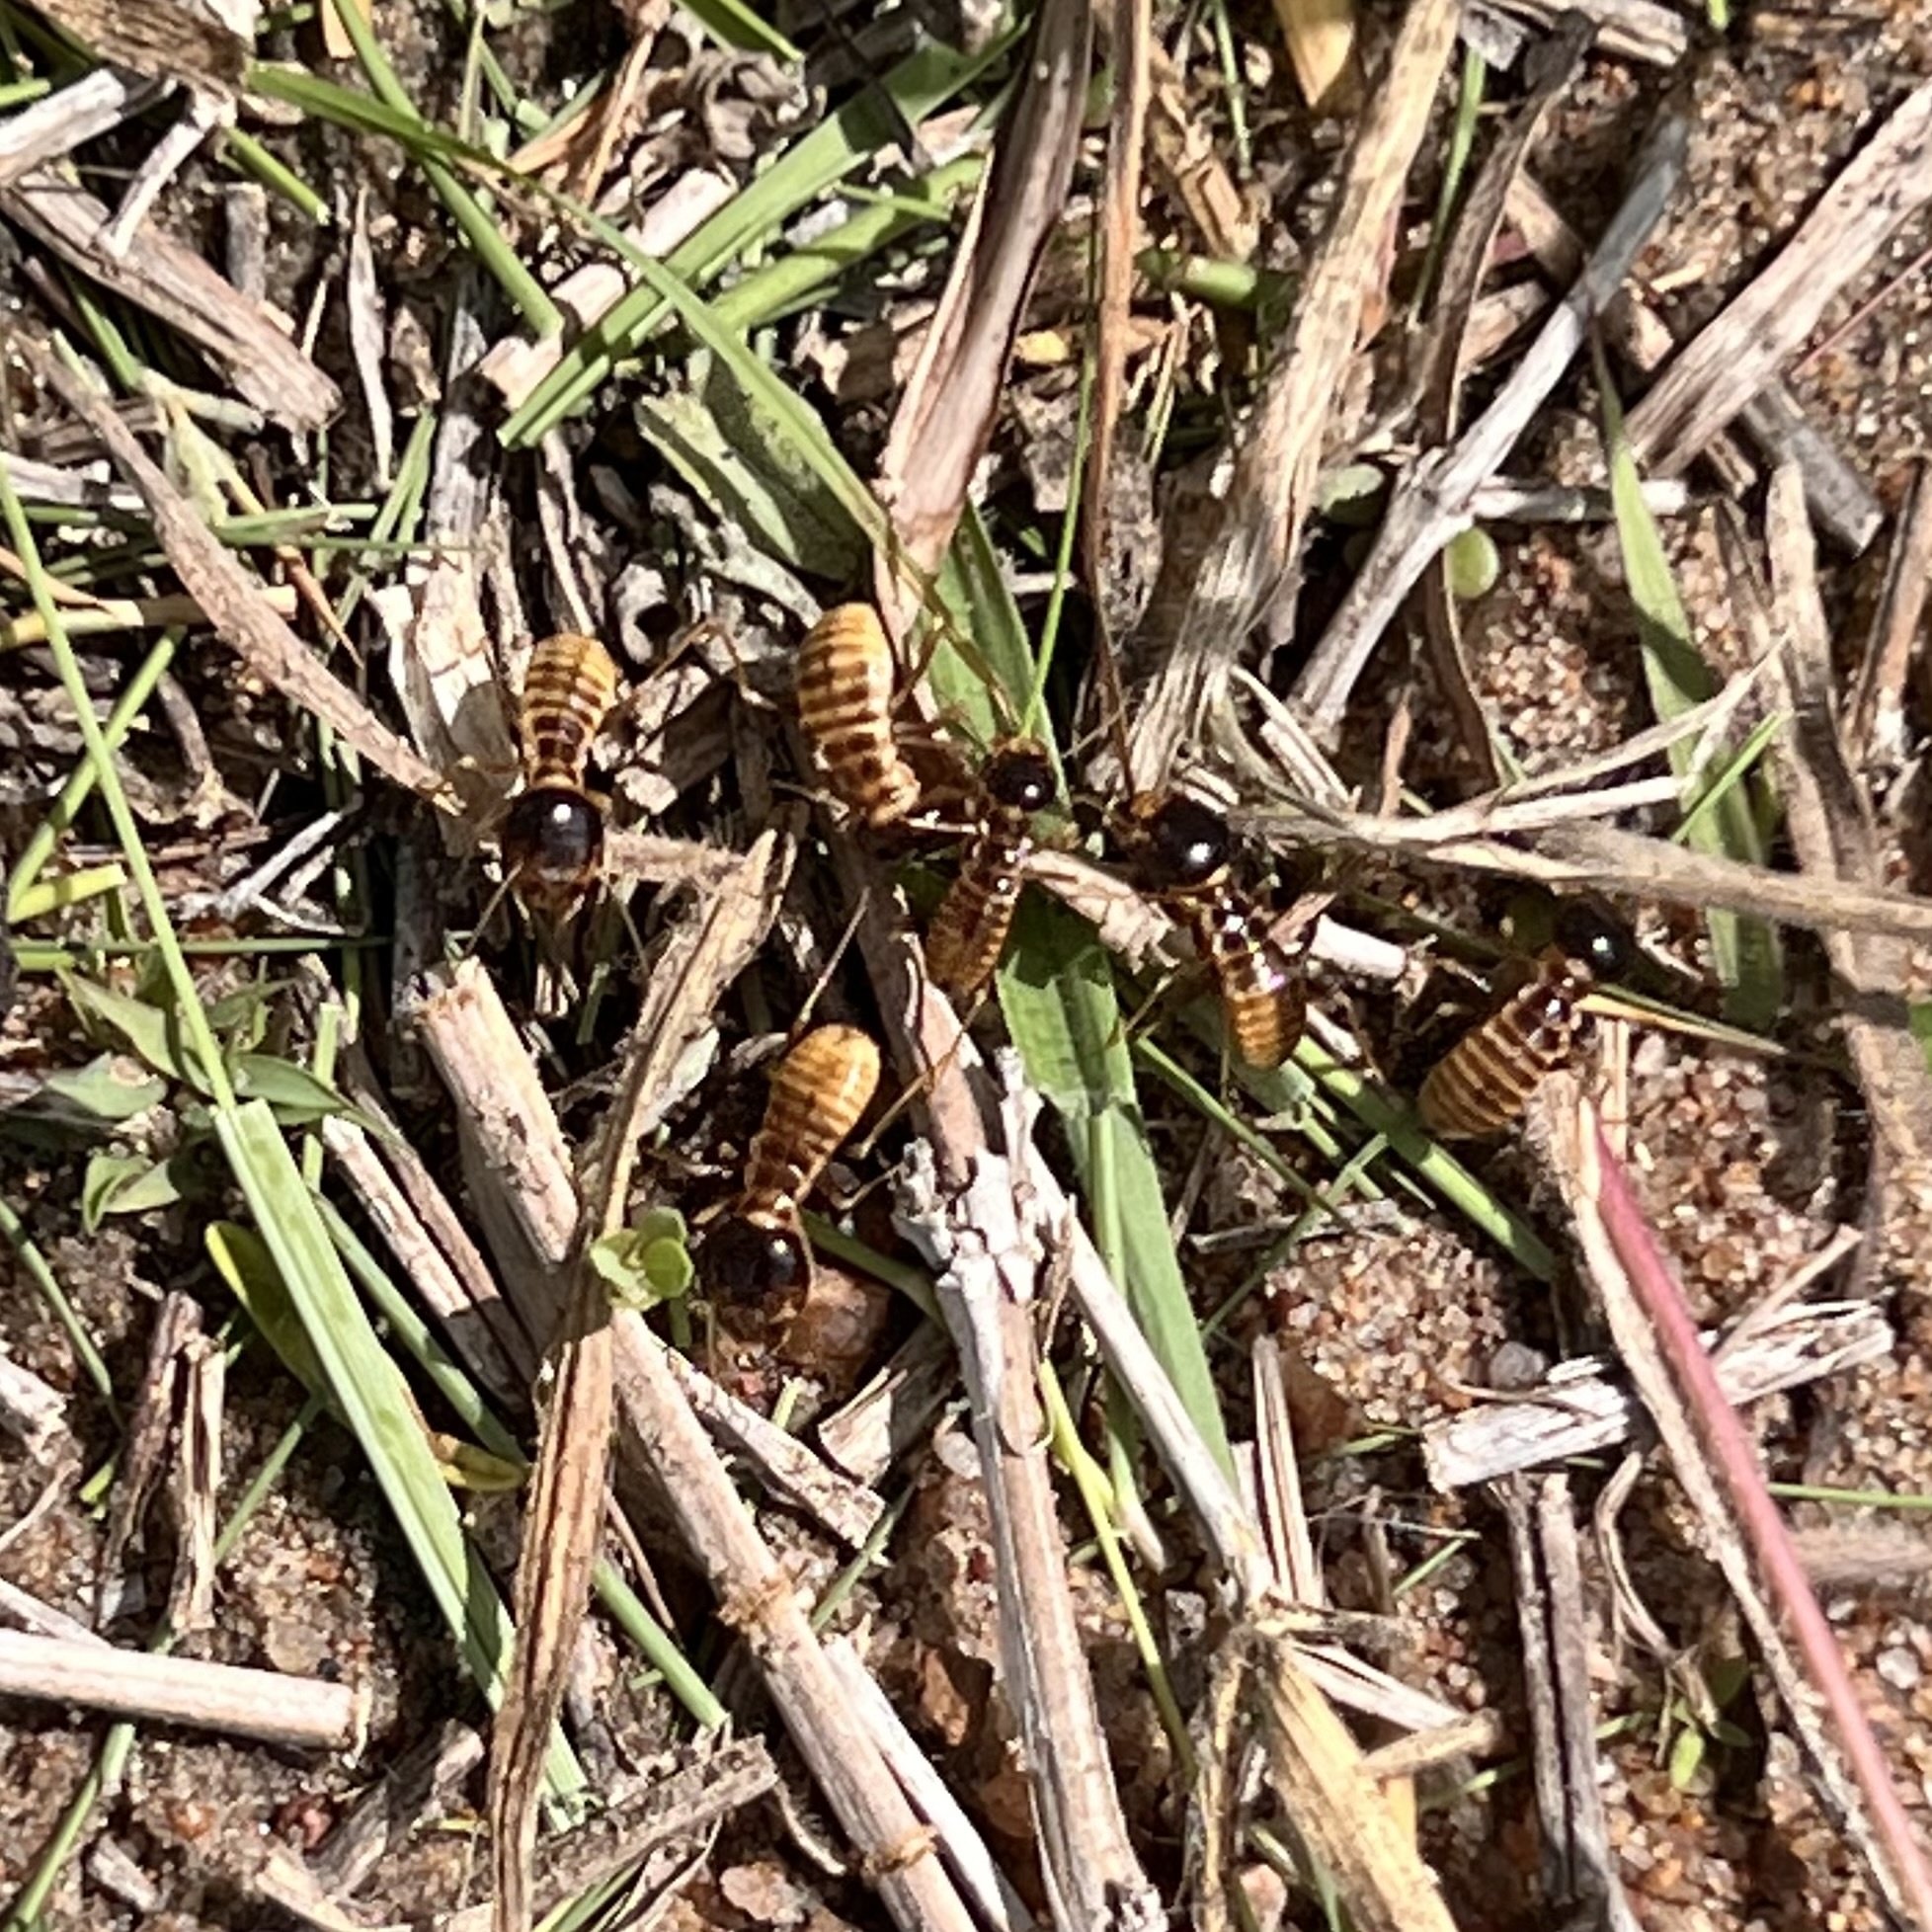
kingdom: Animalia
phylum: Arthropoda
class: Insecta
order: Blattodea
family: Hodotermitidae
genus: Hodotermes
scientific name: Hodotermes mossambicus
